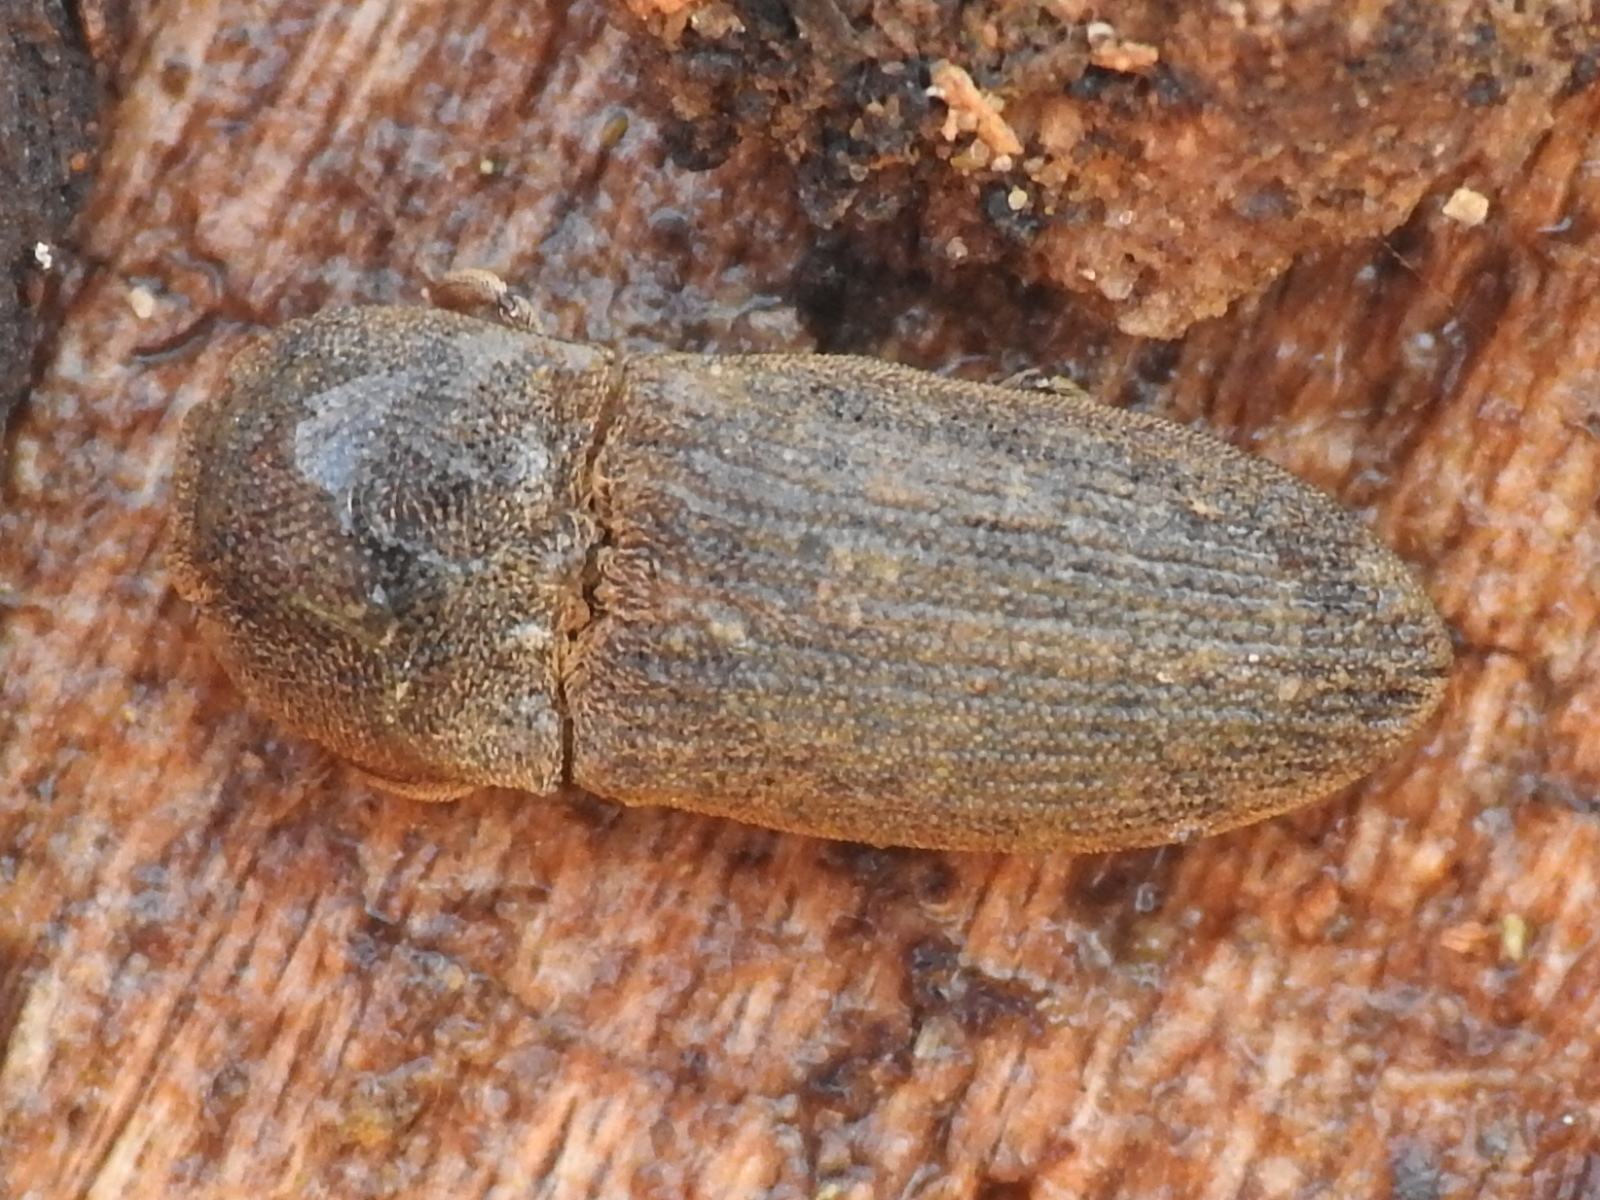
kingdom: Animalia
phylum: Arthropoda
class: Insecta
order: Coleoptera
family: Elateridae
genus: Agrypnus
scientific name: Agrypnus rectangularis
